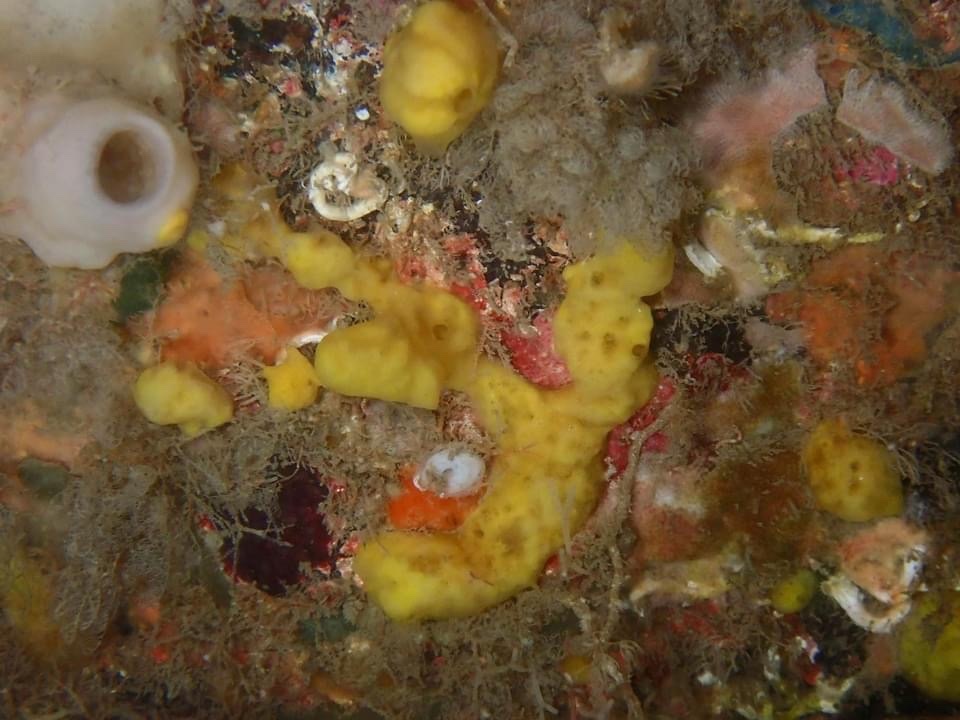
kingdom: Animalia
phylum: Porifera
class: Demospongiae
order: Poecilosclerida
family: Acarnidae
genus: Iophon
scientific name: Iophon nigricans
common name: Yellow-fingered horny sponge
